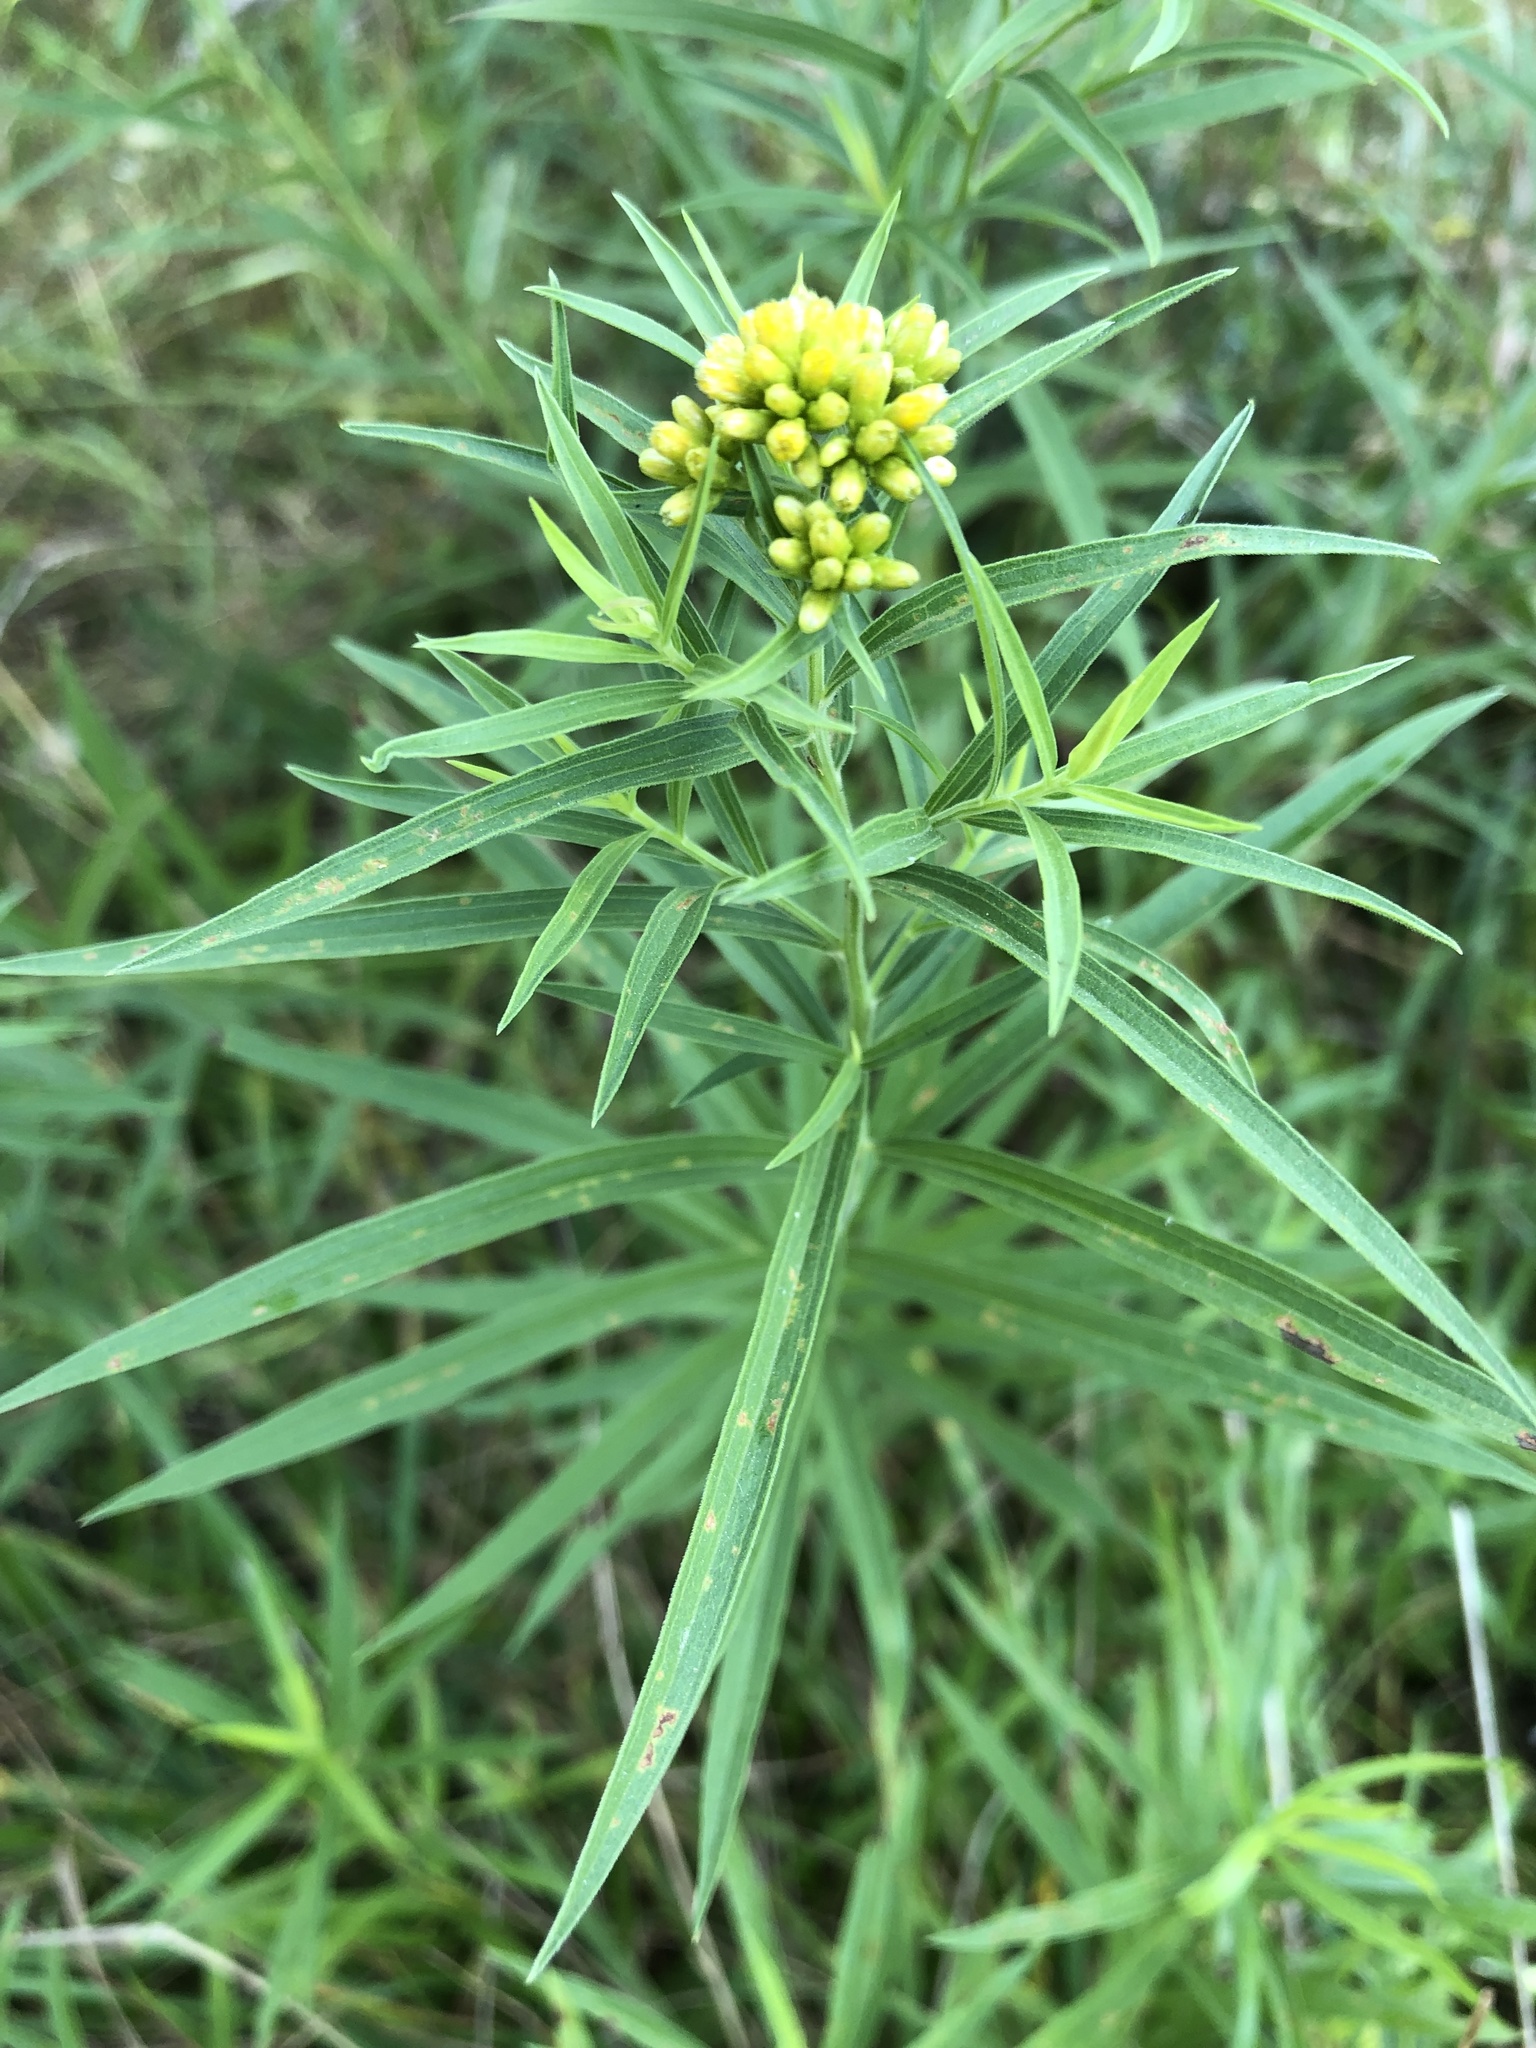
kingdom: Plantae
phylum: Tracheophyta
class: Magnoliopsida
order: Asterales
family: Asteraceae
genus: Euthamia
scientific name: Euthamia graminifolia
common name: Common goldentop
